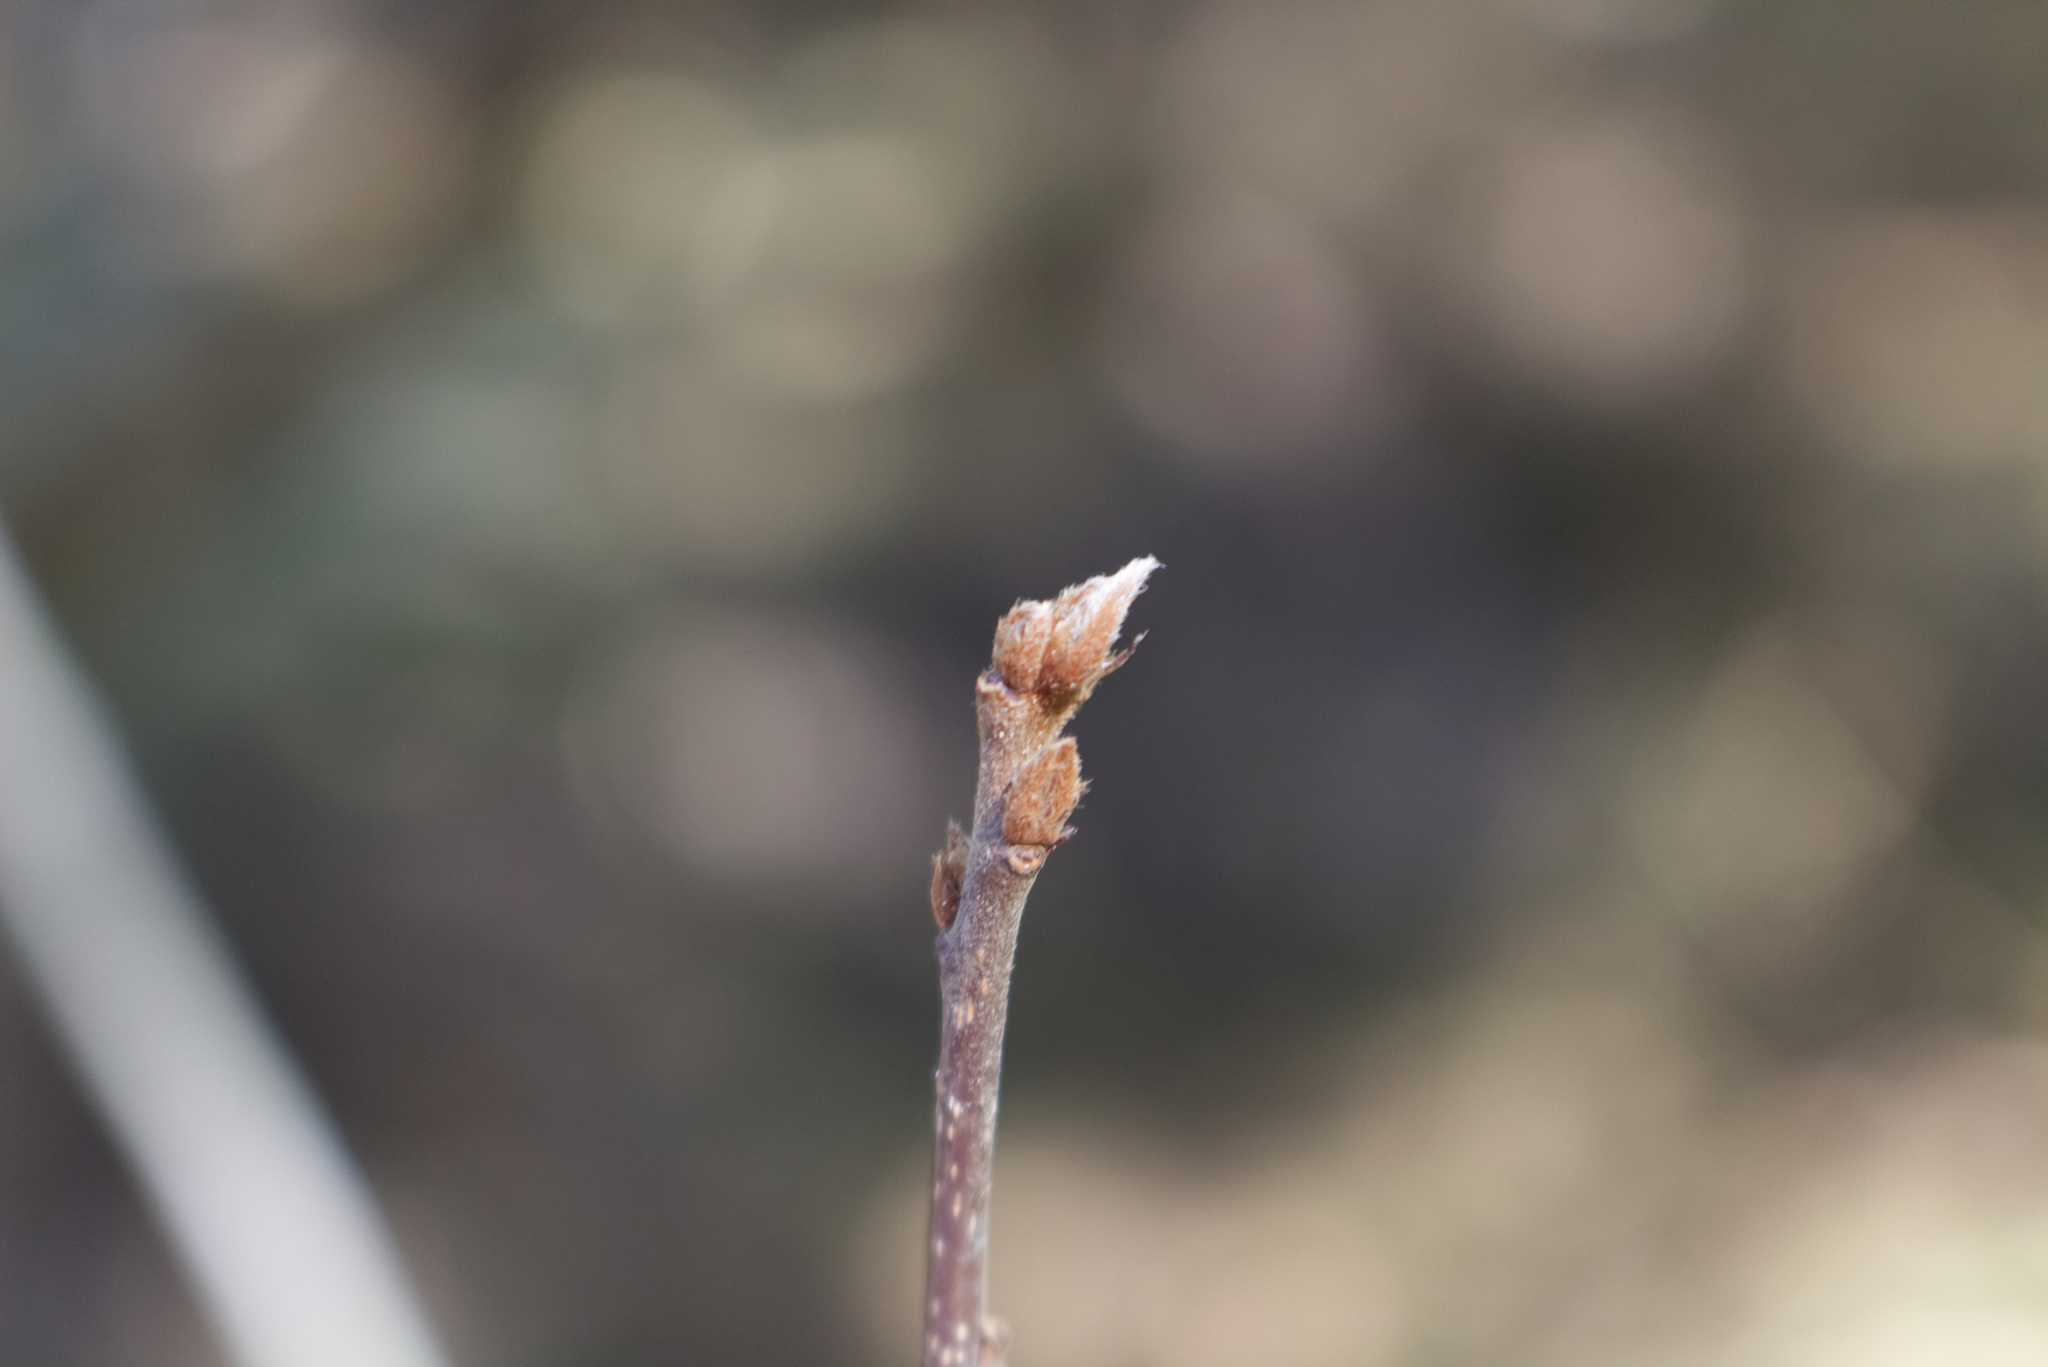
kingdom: Plantae
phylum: Tracheophyta
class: Magnoliopsida
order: Rosales
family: Rhamnaceae
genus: Frangula
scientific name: Frangula alnus
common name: Alder buckthorn
